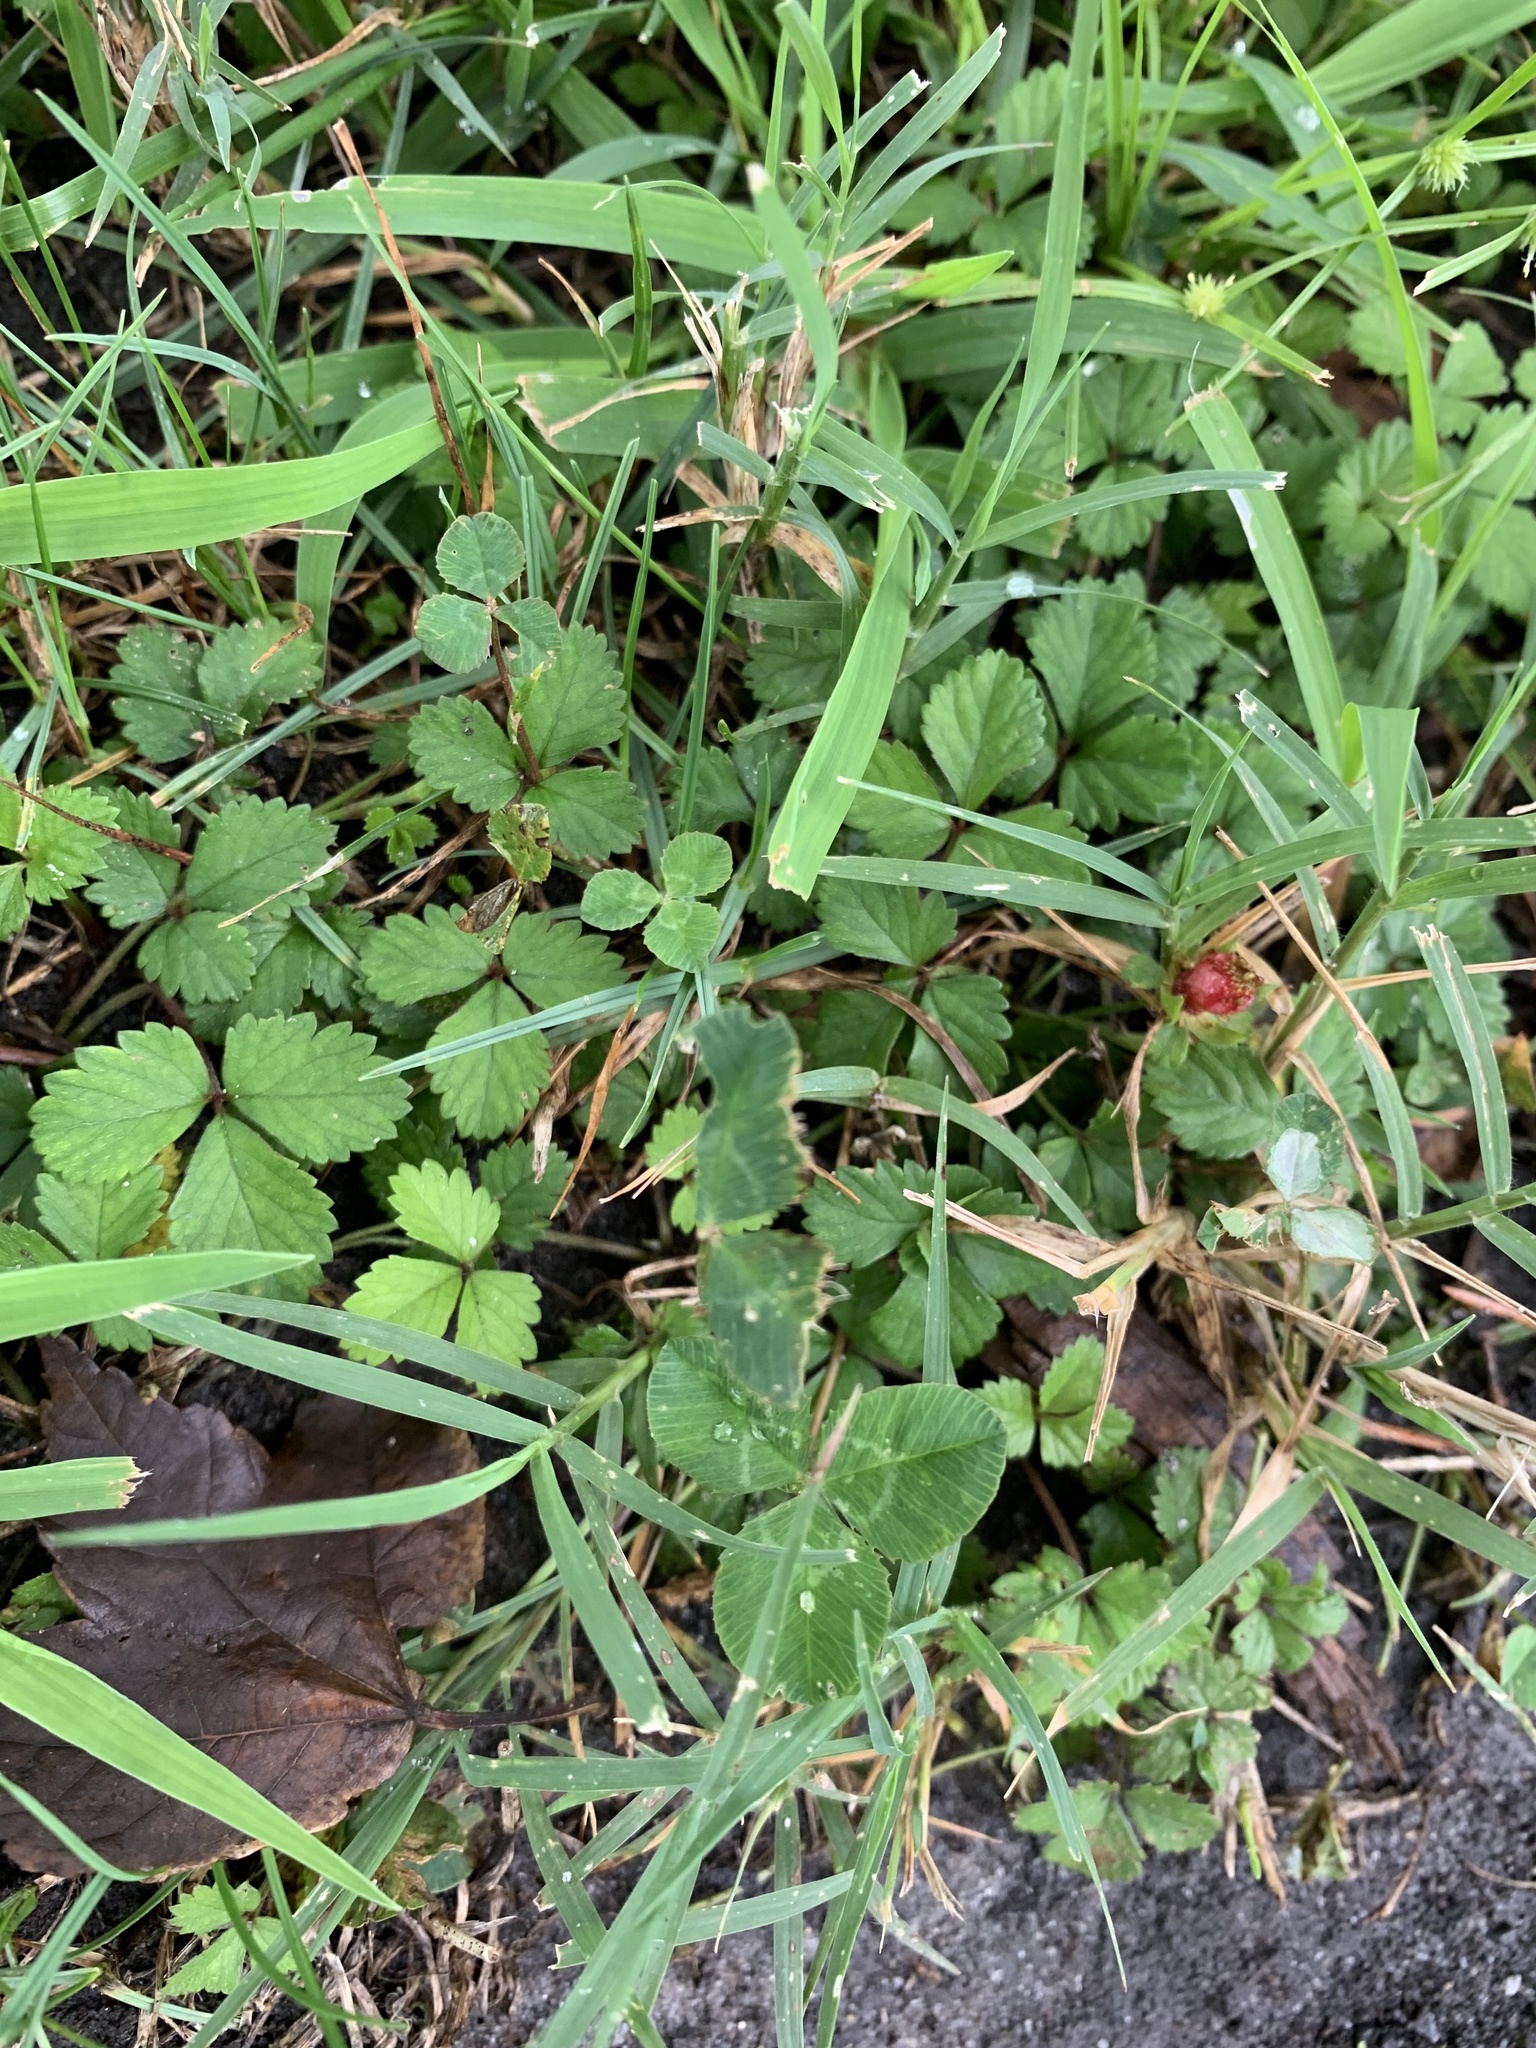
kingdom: Plantae
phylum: Tracheophyta
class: Magnoliopsida
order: Rosales
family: Rosaceae
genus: Potentilla
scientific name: Potentilla indica
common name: Yellow-flowered strawberry
